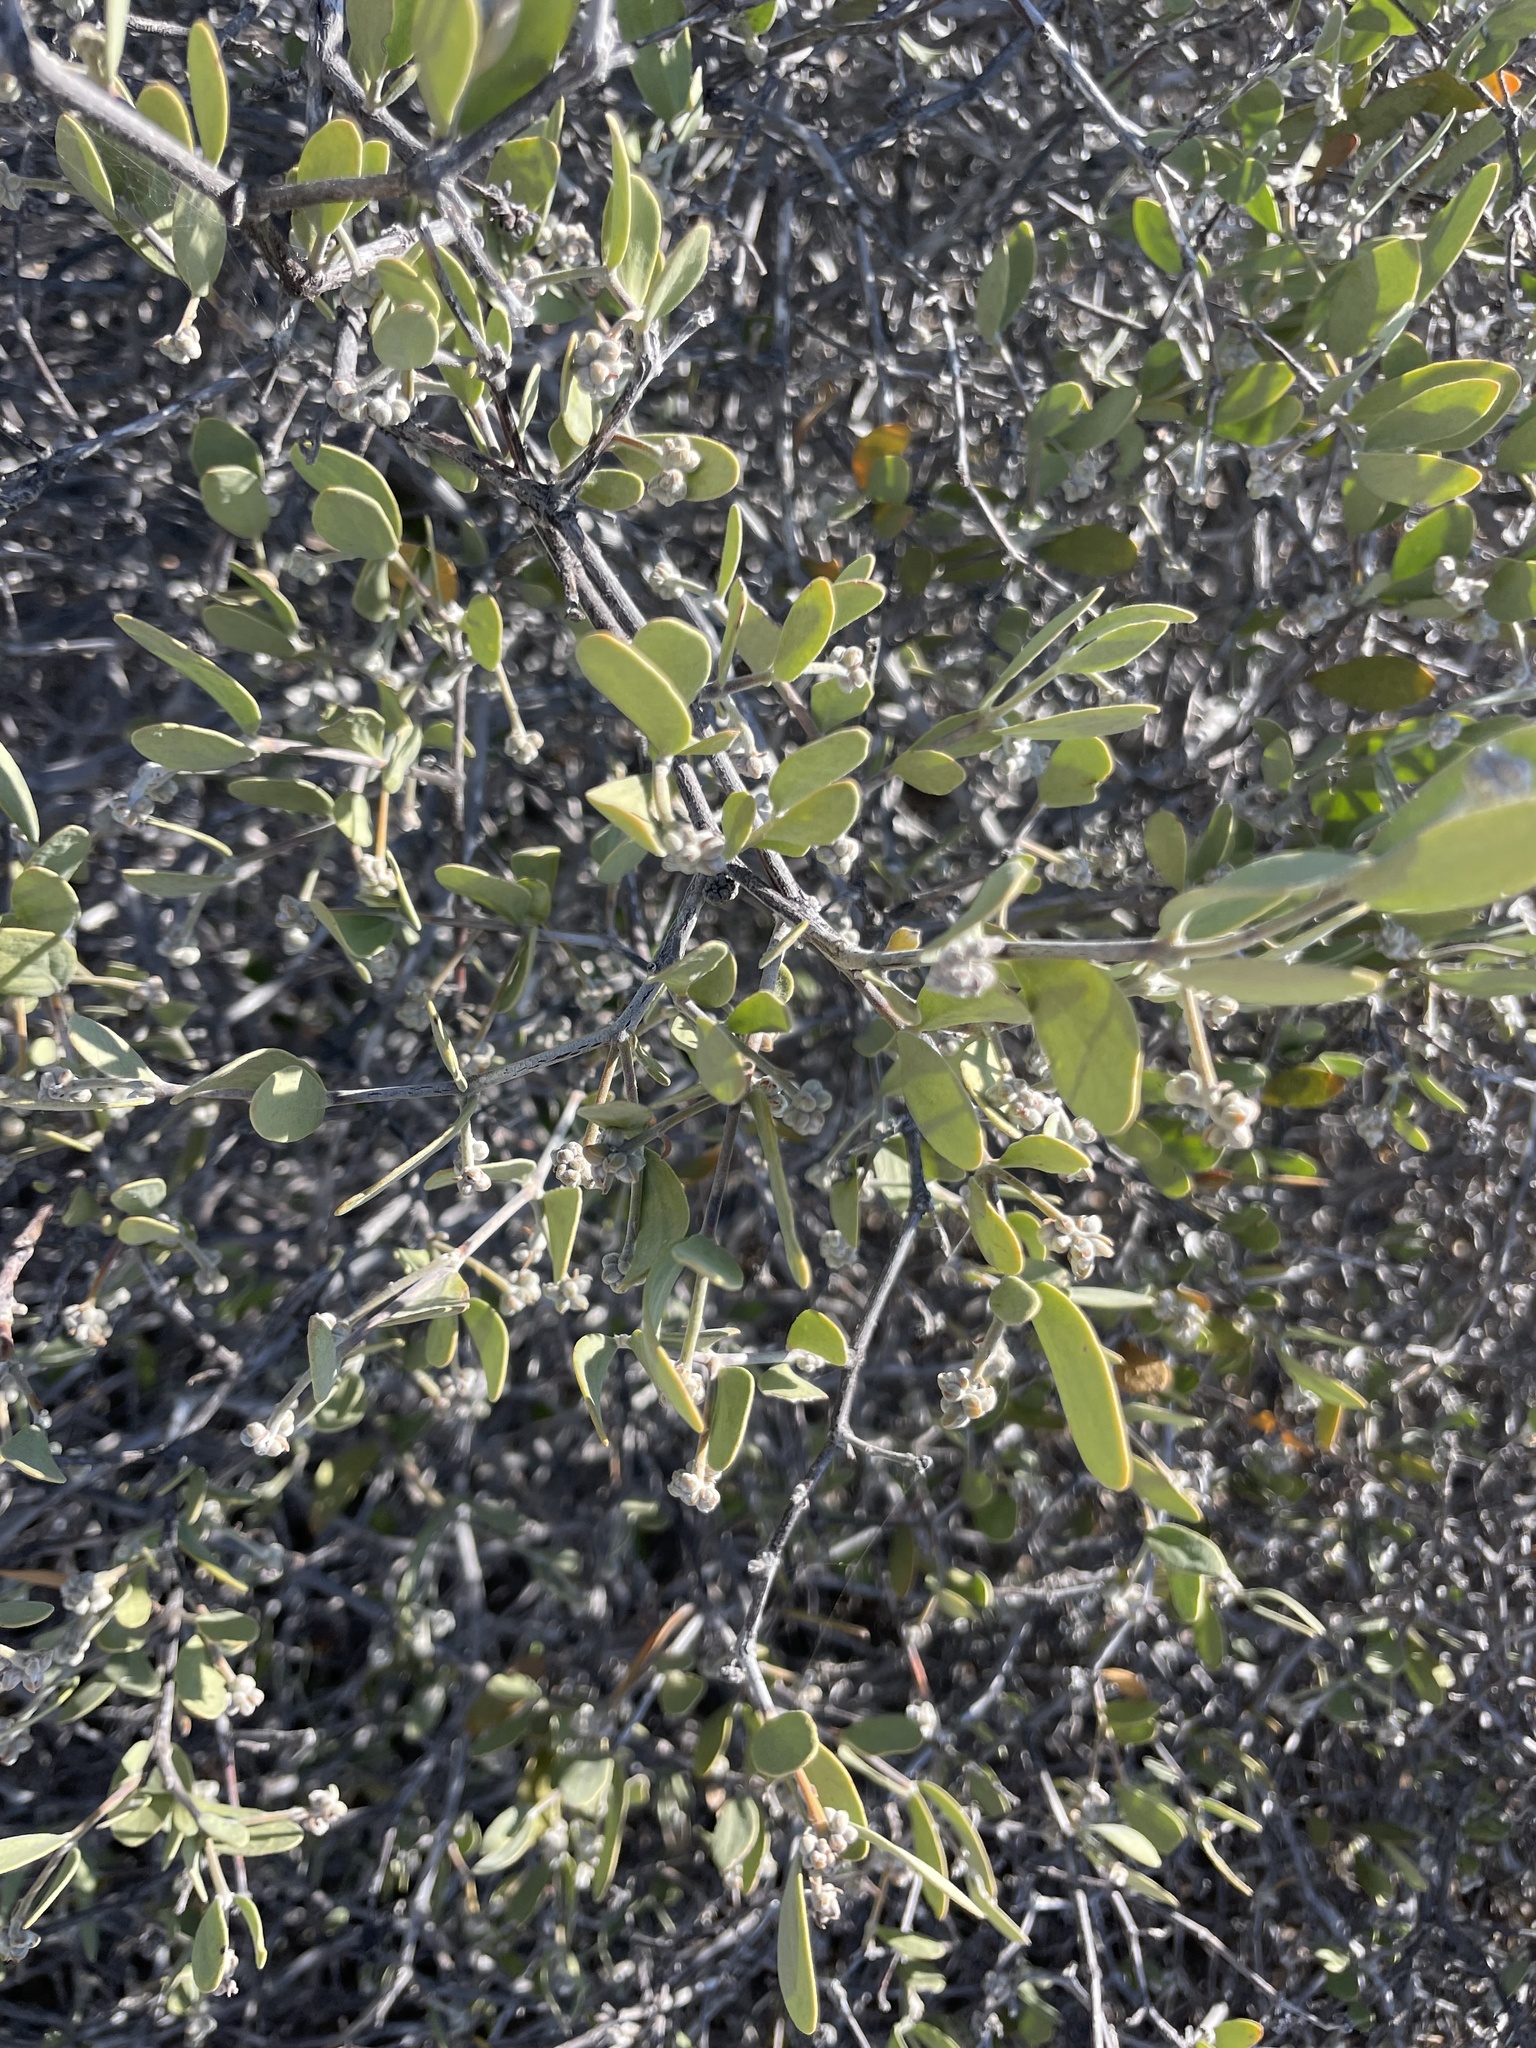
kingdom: Plantae
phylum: Tracheophyta
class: Magnoliopsida
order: Caryophyllales
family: Simmondsiaceae
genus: Simmondsia
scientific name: Simmondsia chinensis
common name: Jojoba
